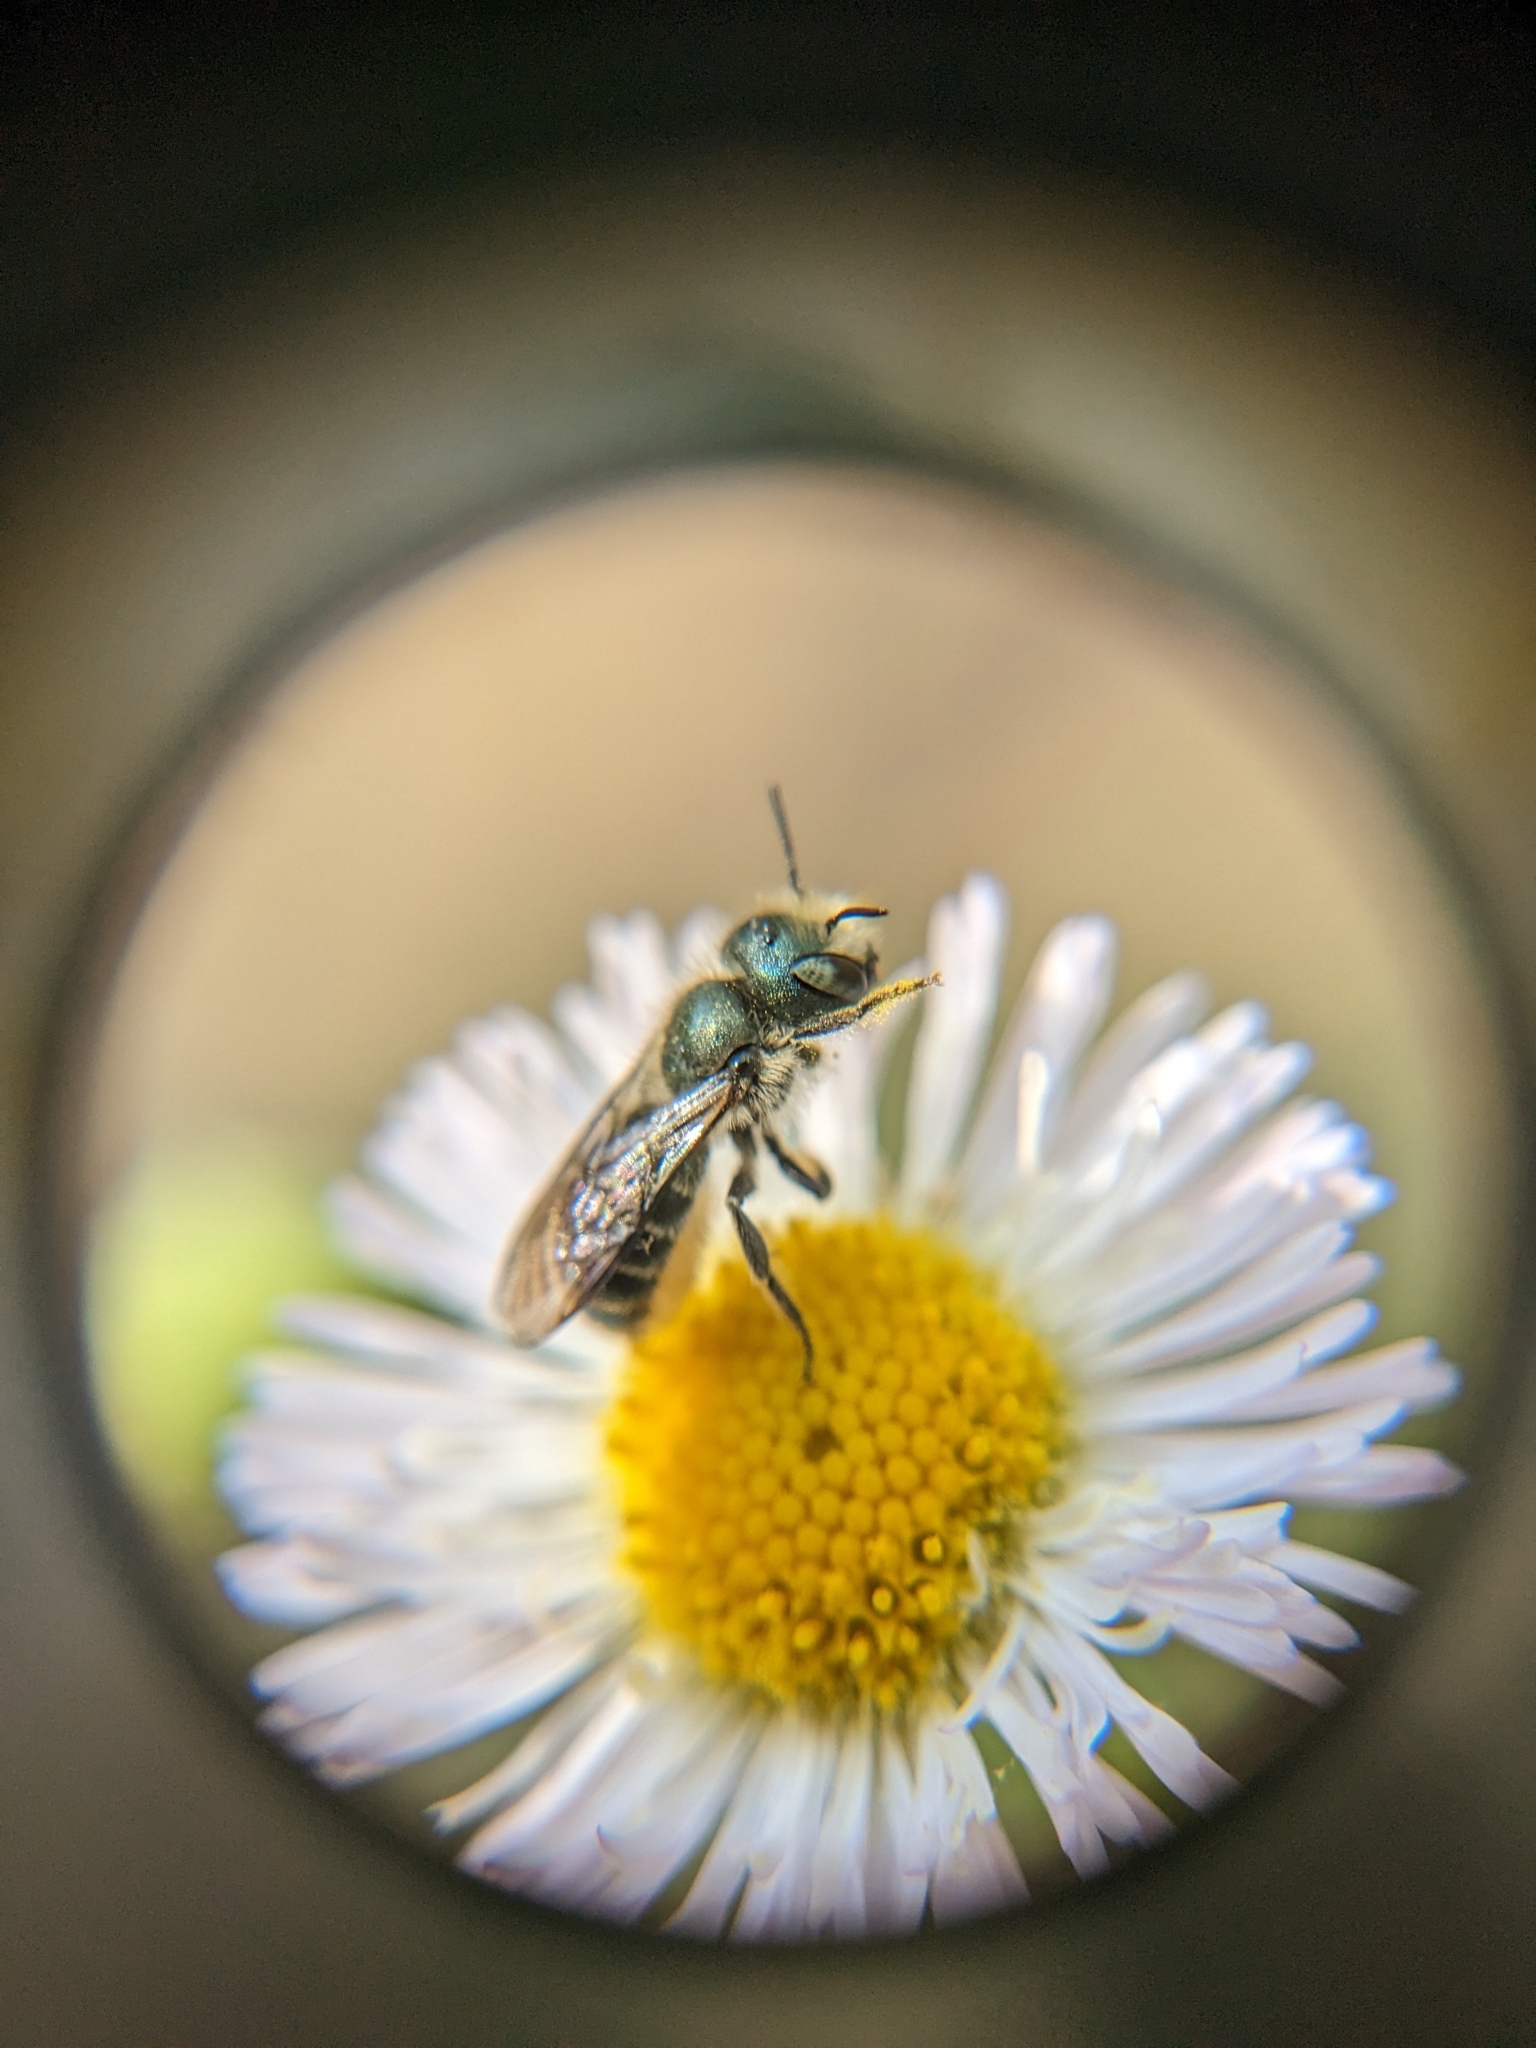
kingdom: Animalia
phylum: Arthropoda
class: Insecta
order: Hymenoptera
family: Megachilidae
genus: Osmia
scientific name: Osmia georgica
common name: Georgia mason
